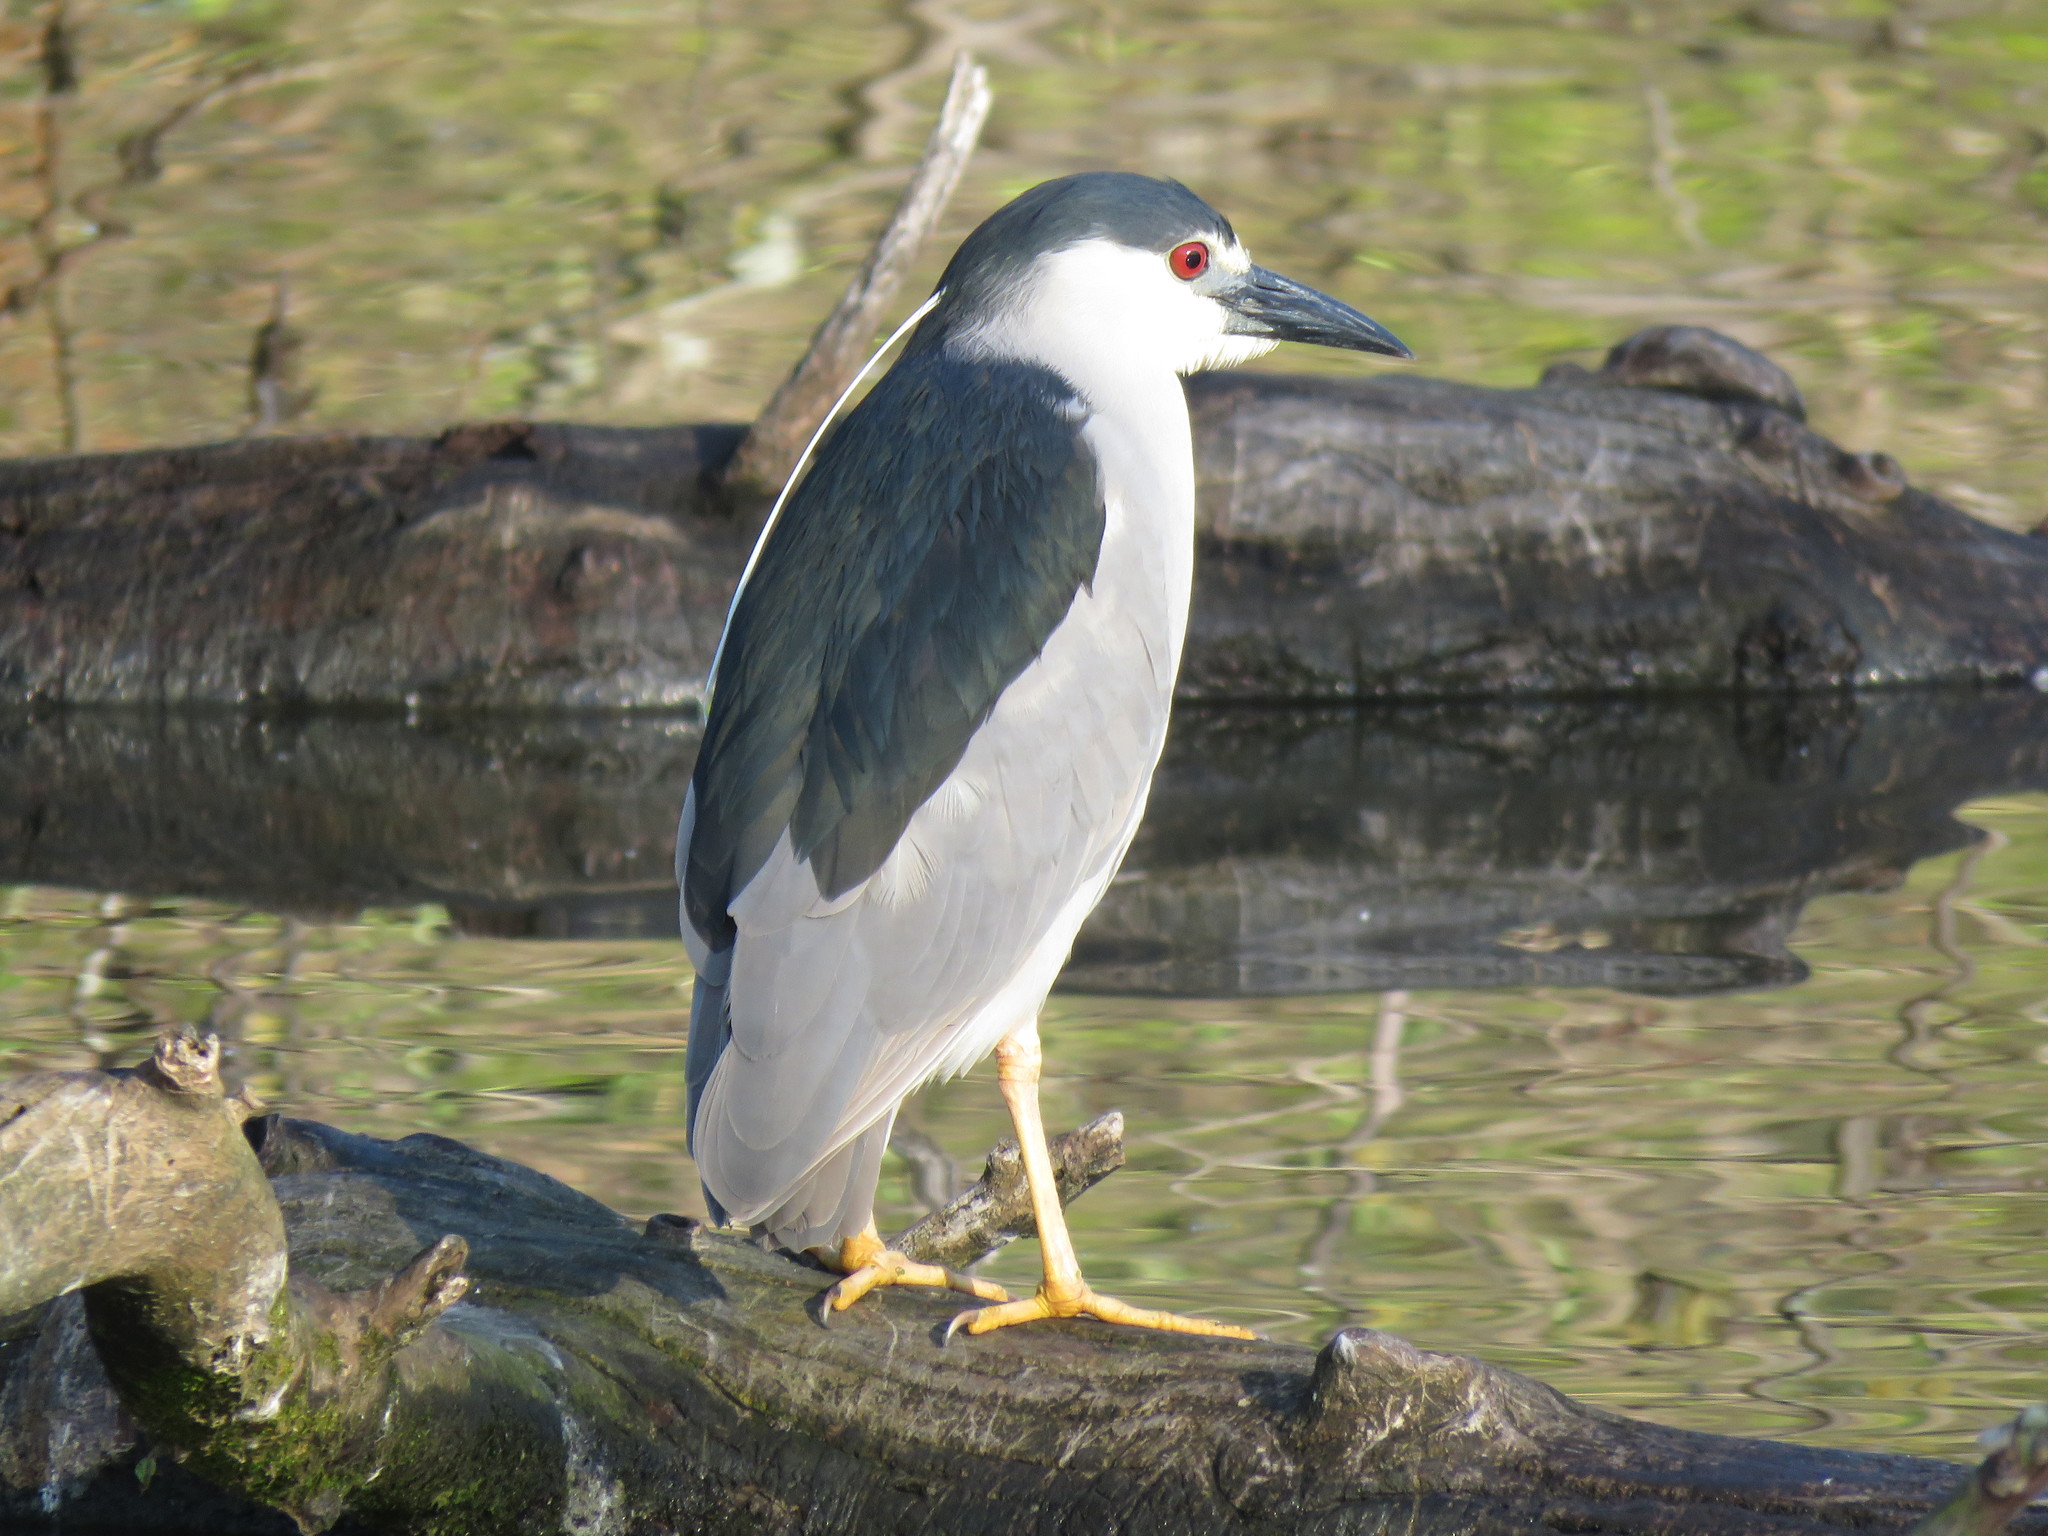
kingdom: Animalia
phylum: Chordata
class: Aves
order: Pelecaniformes
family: Ardeidae
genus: Nycticorax
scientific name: Nycticorax nycticorax
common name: Black-crowned night heron
